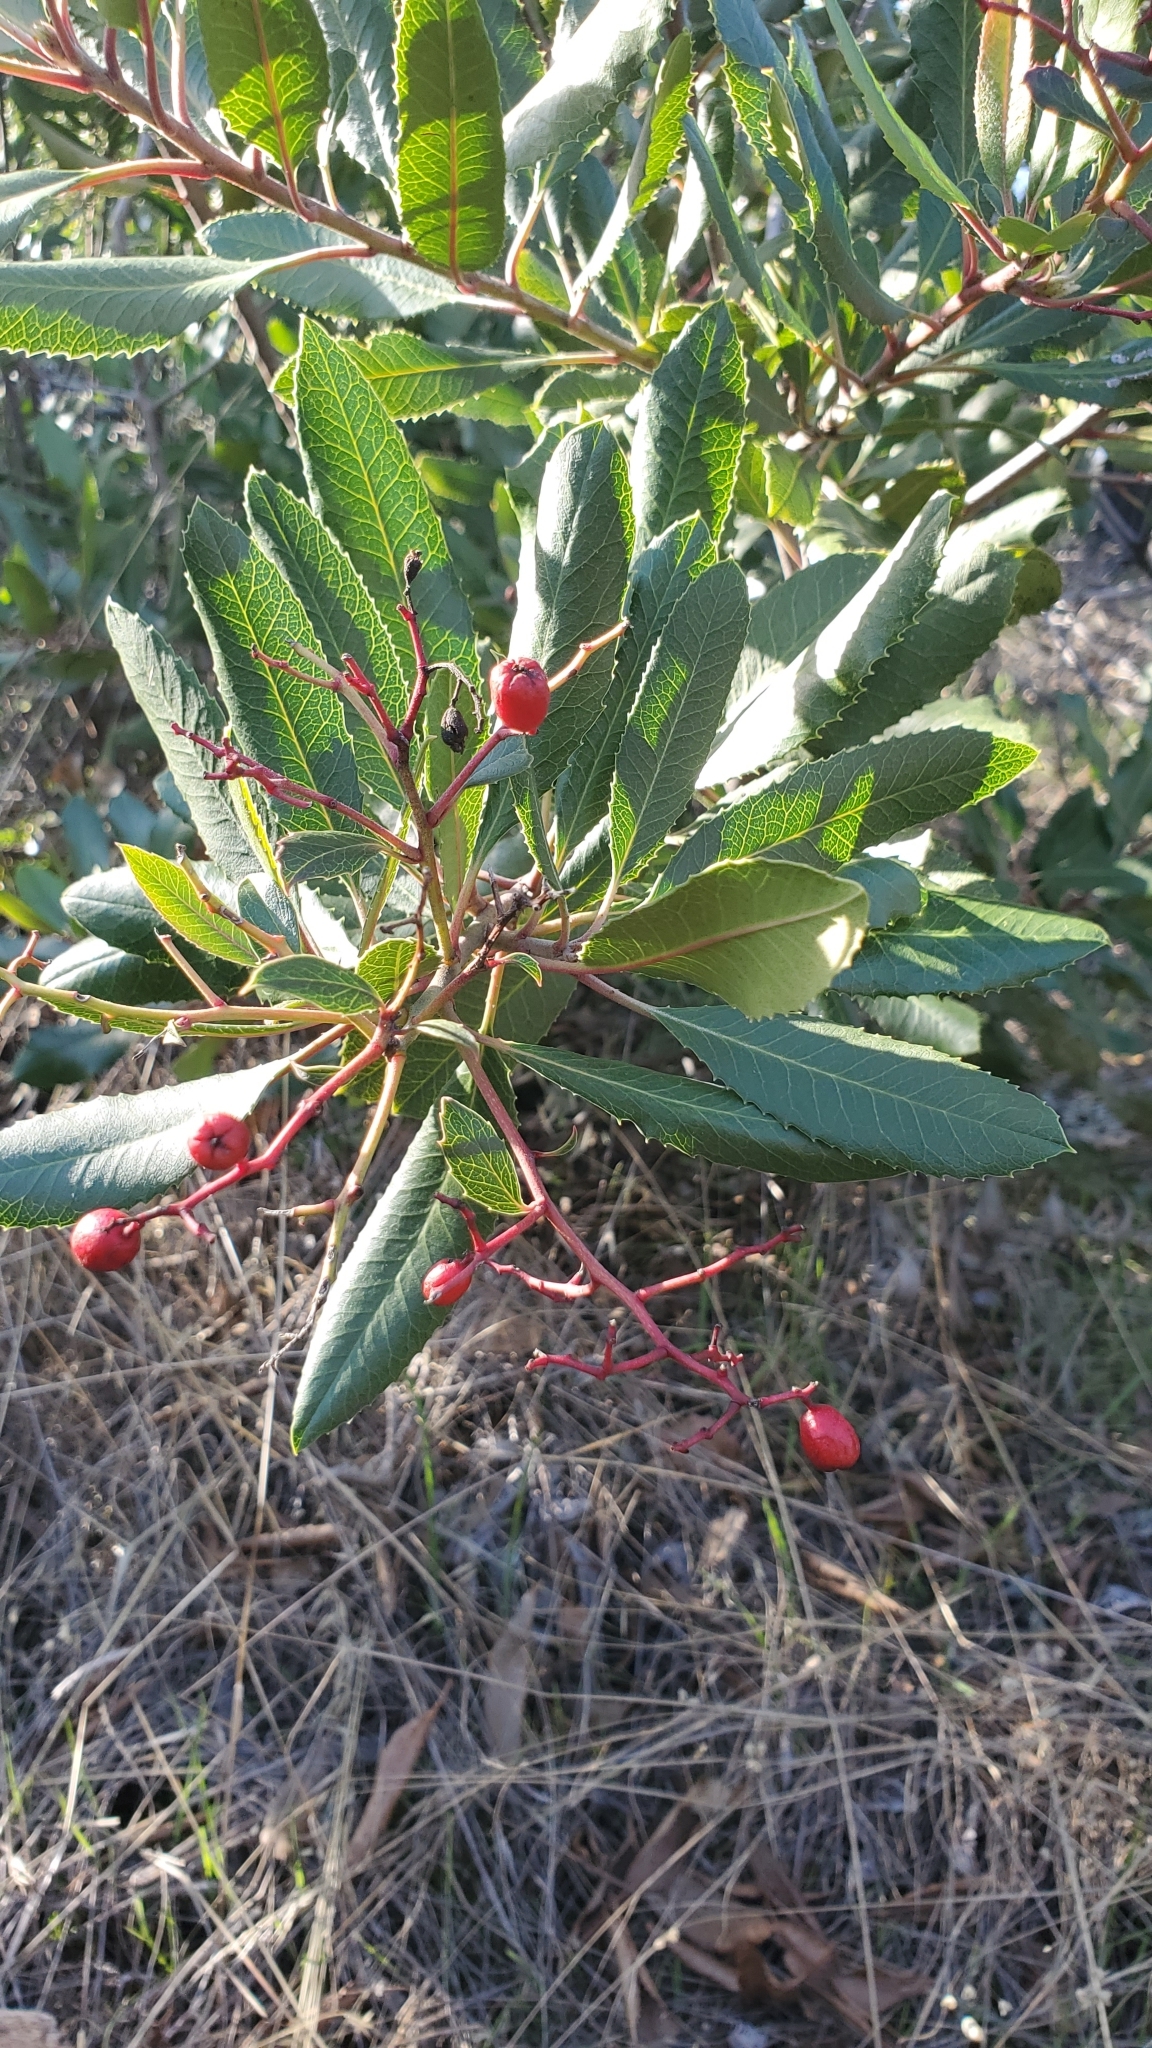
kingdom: Plantae
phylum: Tracheophyta
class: Magnoliopsida
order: Rosales
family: Rosaceae
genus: Heteromeles
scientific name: Heteromeles arbutifolia
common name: California-holly
